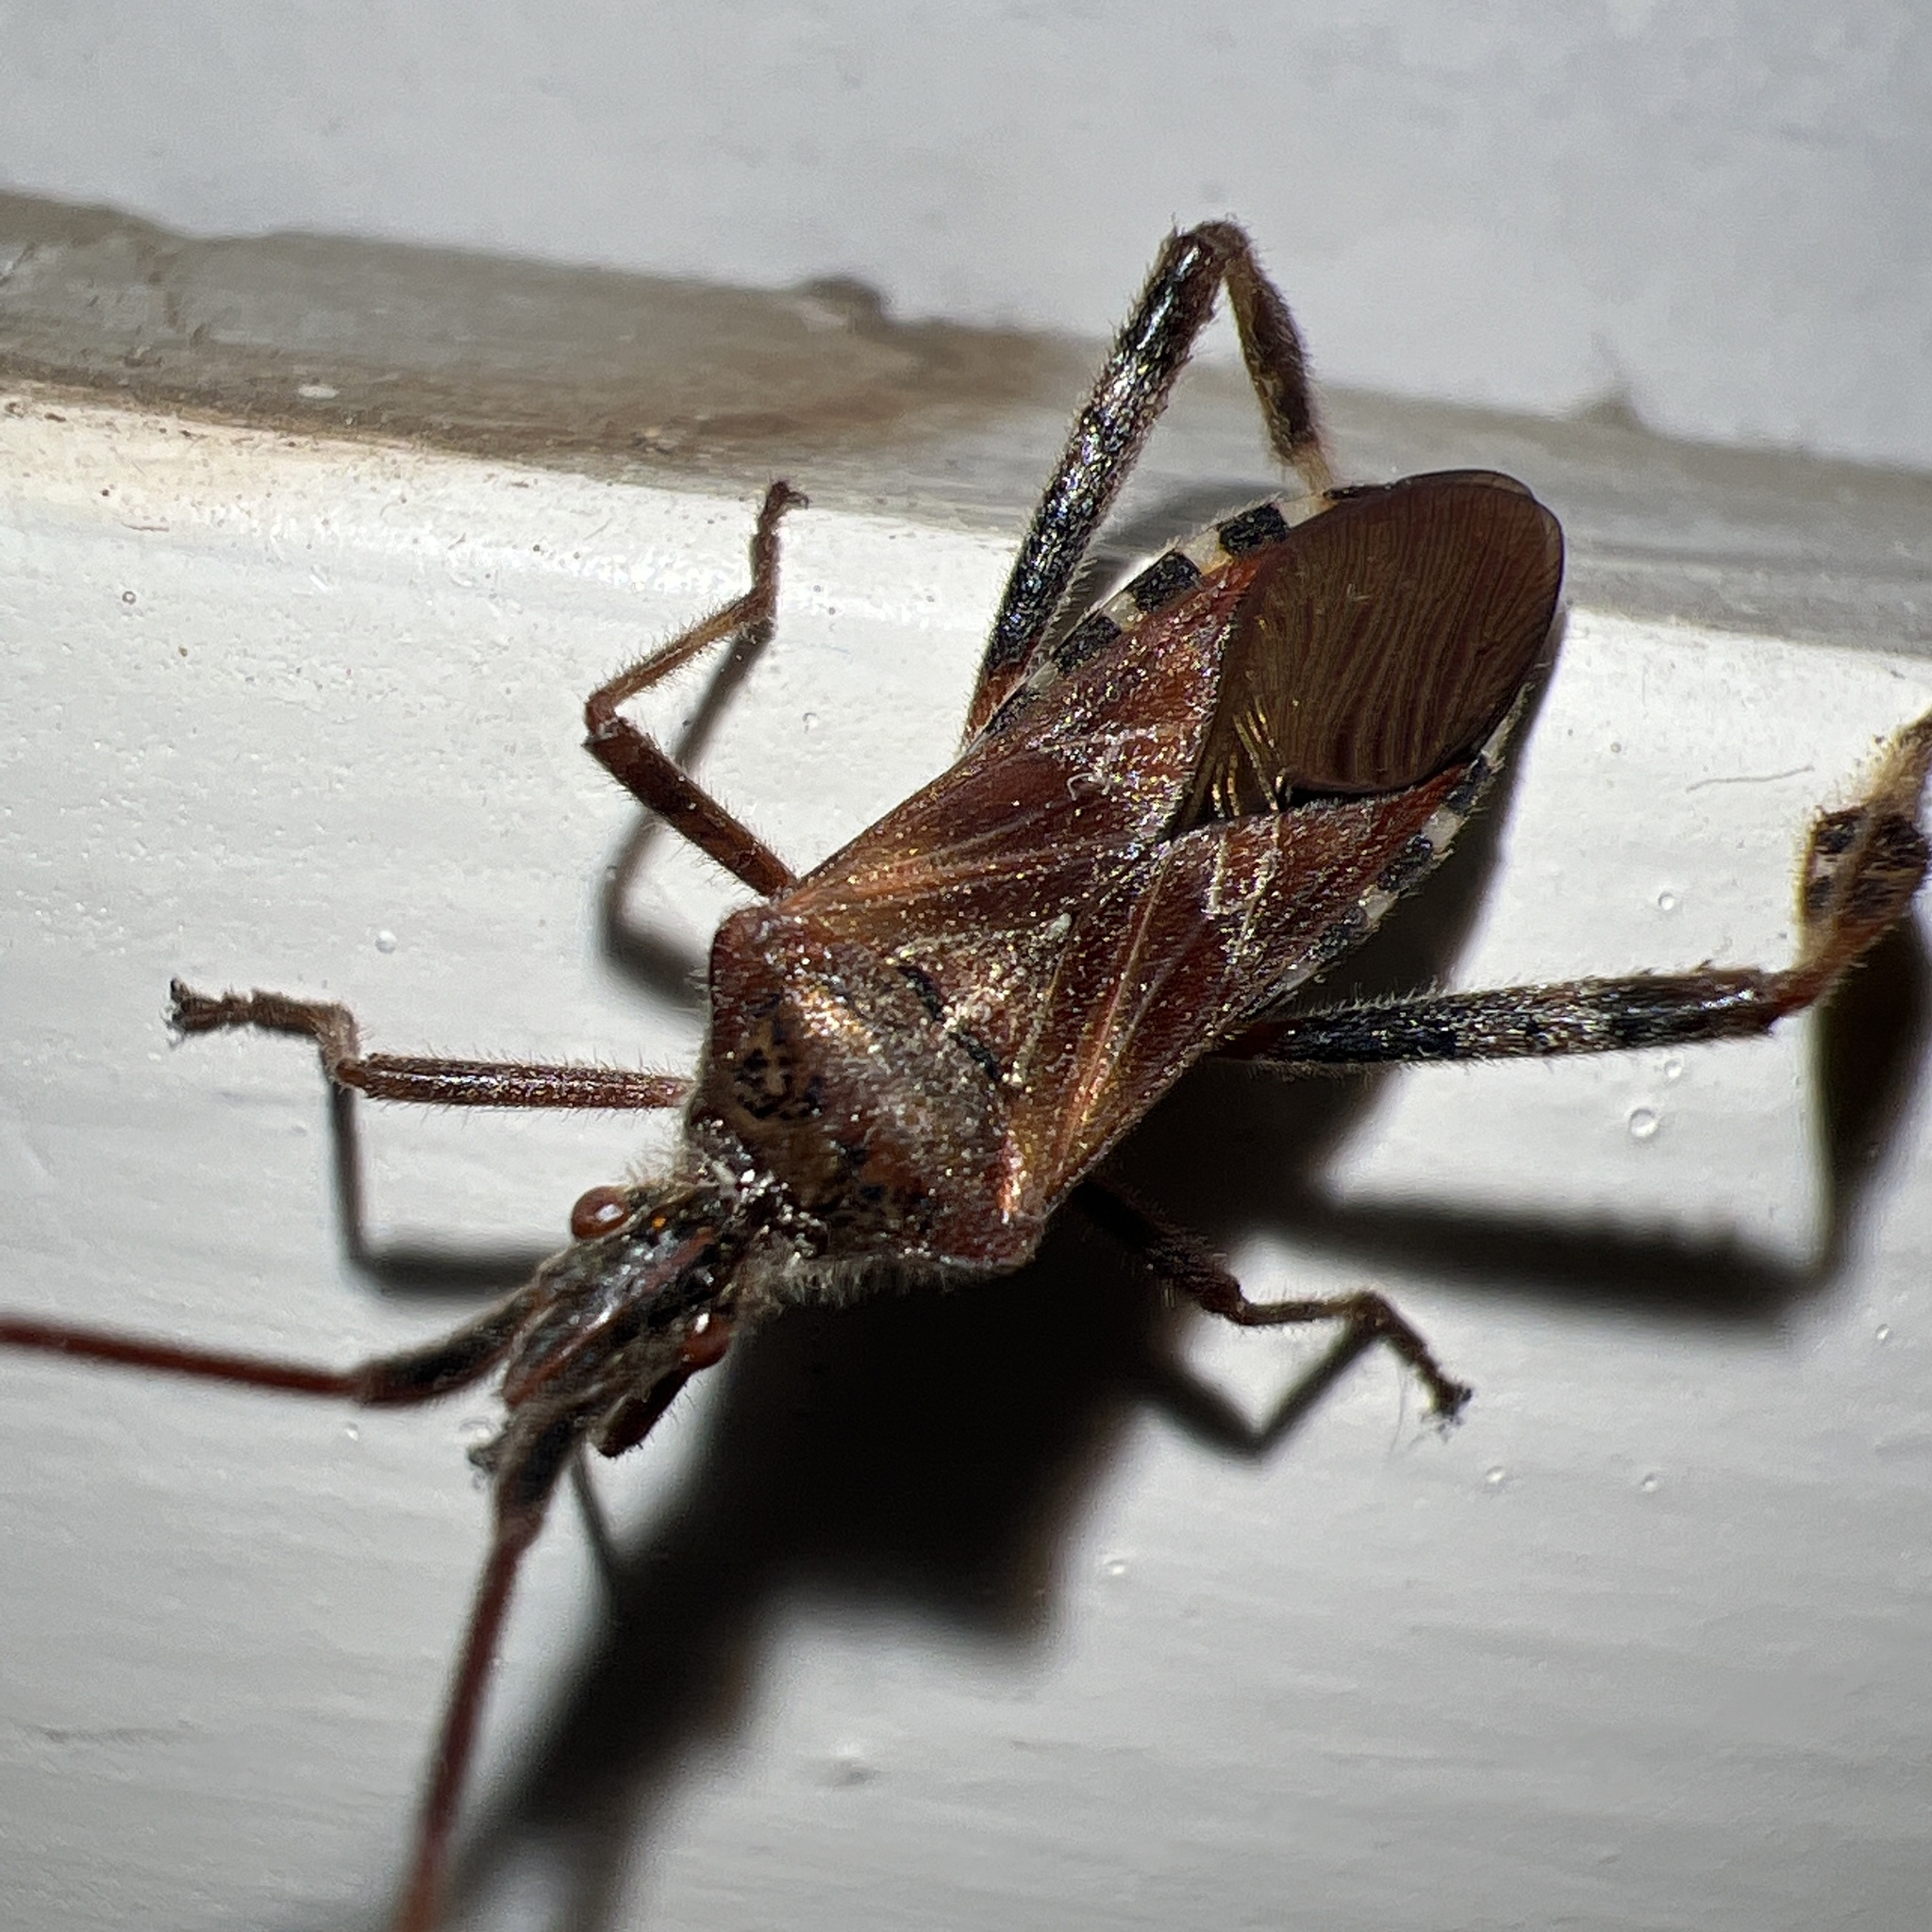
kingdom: Animalia
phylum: Arthropoda
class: Insecta
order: Hemiptera
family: Coreidae
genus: Leptoglossus
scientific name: Leptoglossus occidentalis
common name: Western conifer-seed bug
